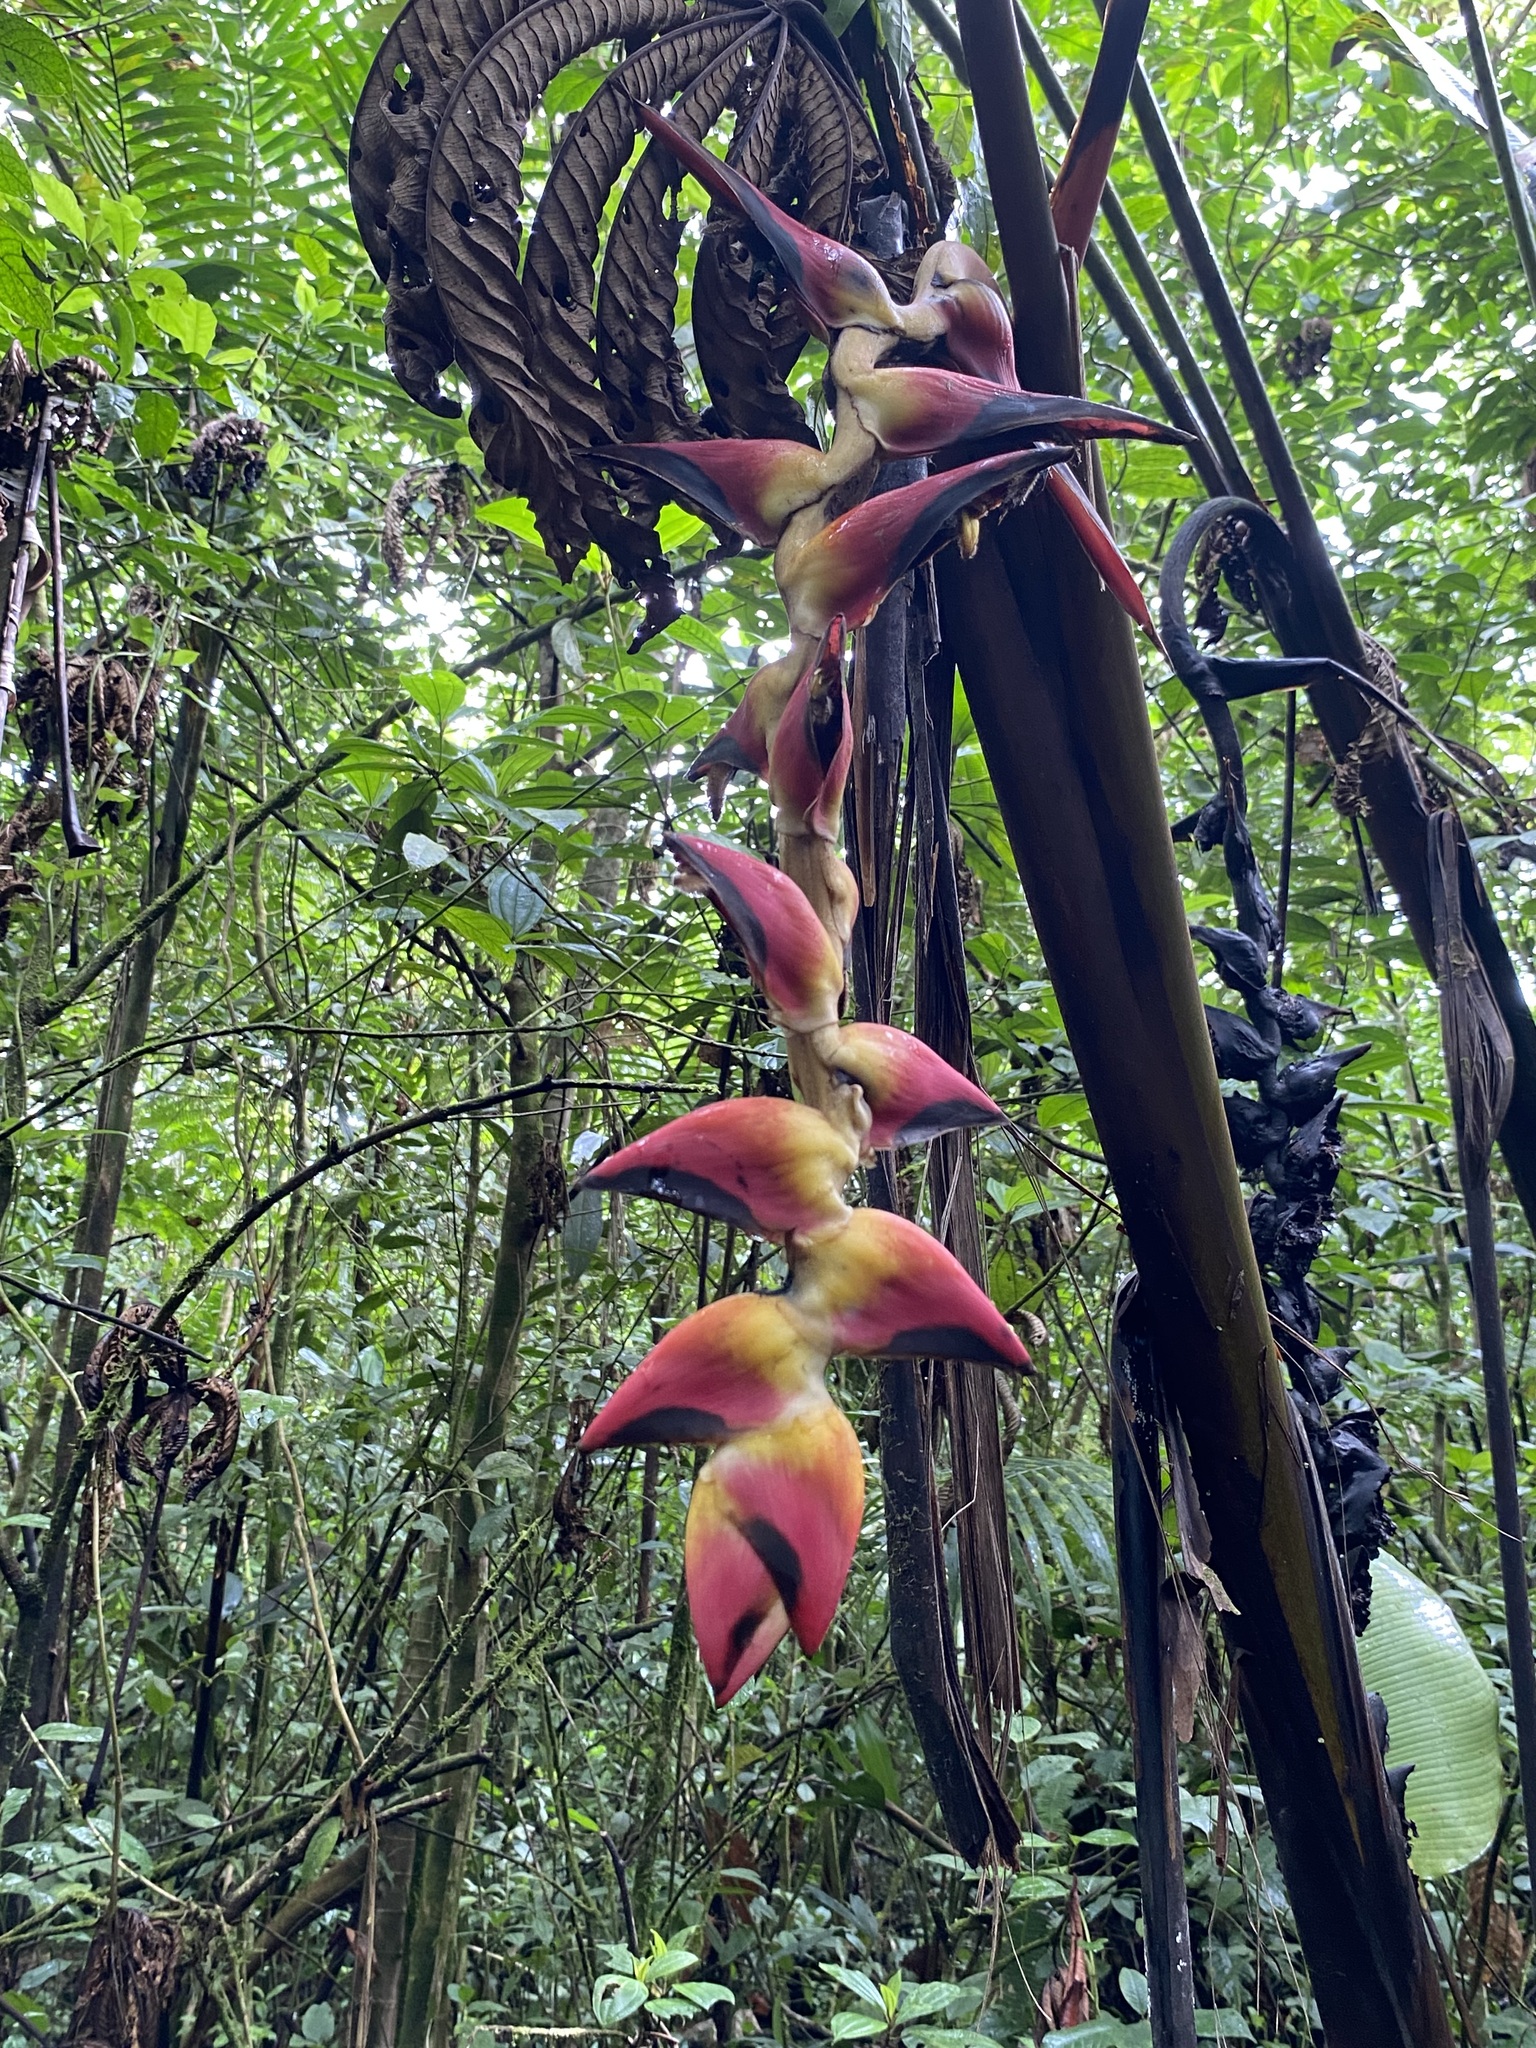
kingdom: Plantae
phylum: Tracheophyta
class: Liliopsida
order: Zingiberales
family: Heliconiaceae
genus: Heliconia
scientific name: Heliconia pogonantha
